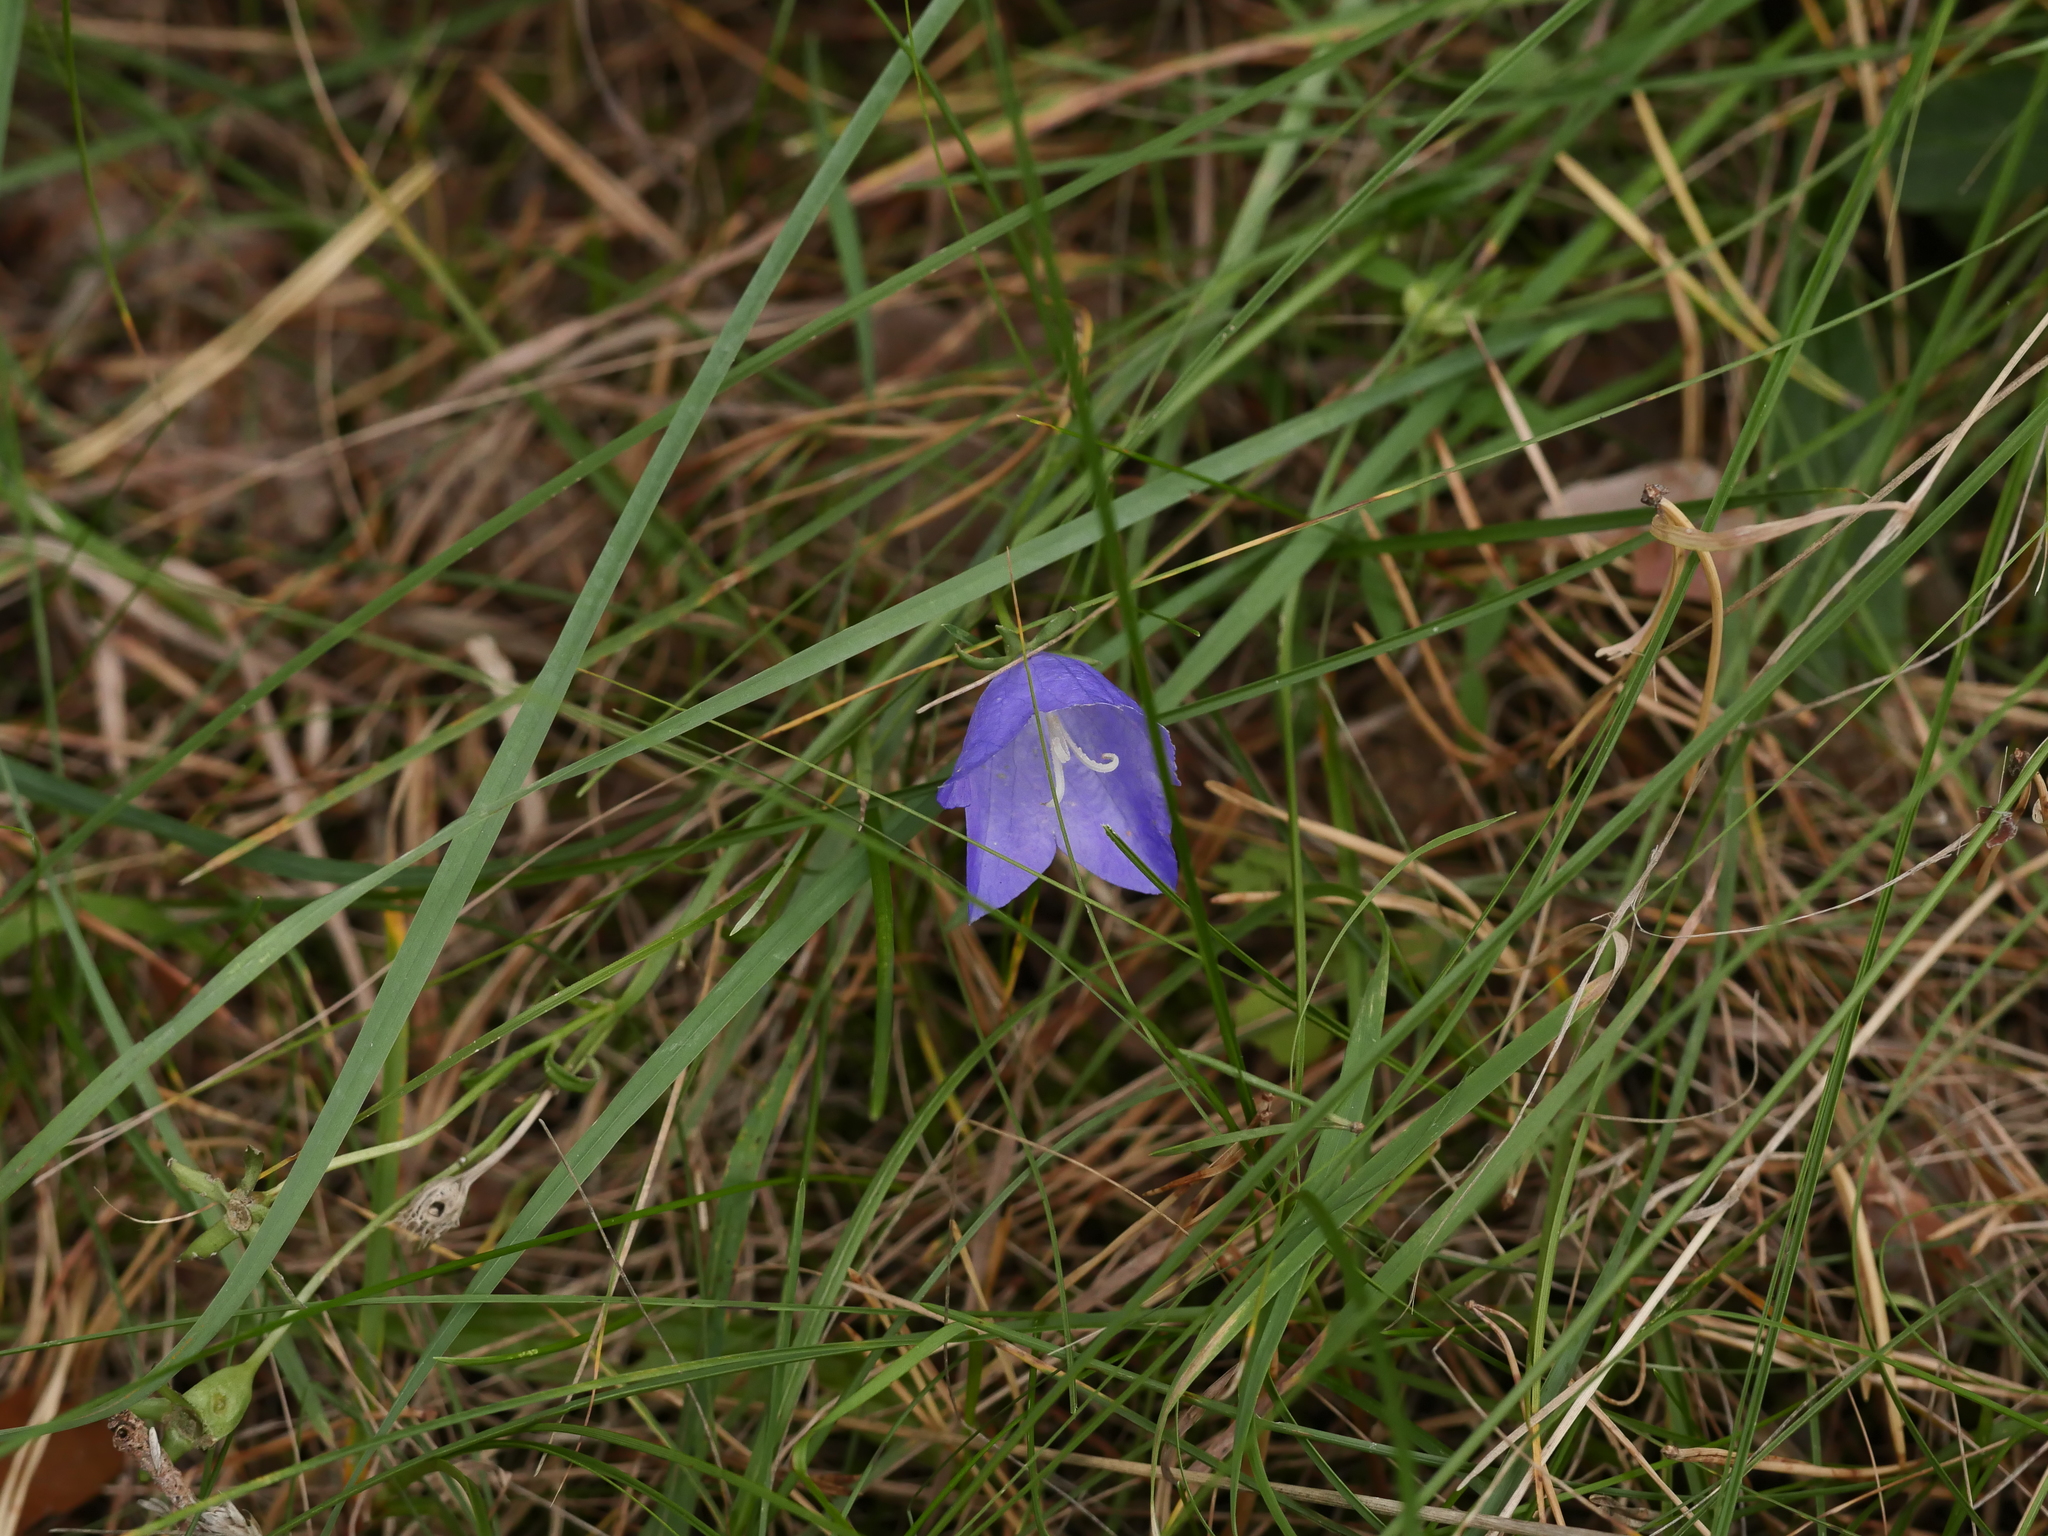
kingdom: Plantae
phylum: Tracheophyta
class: Magnoliopsida
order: Asterales
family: Campanulaceae
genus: Campanula
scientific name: Campanula rotundifolia
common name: Harebell
